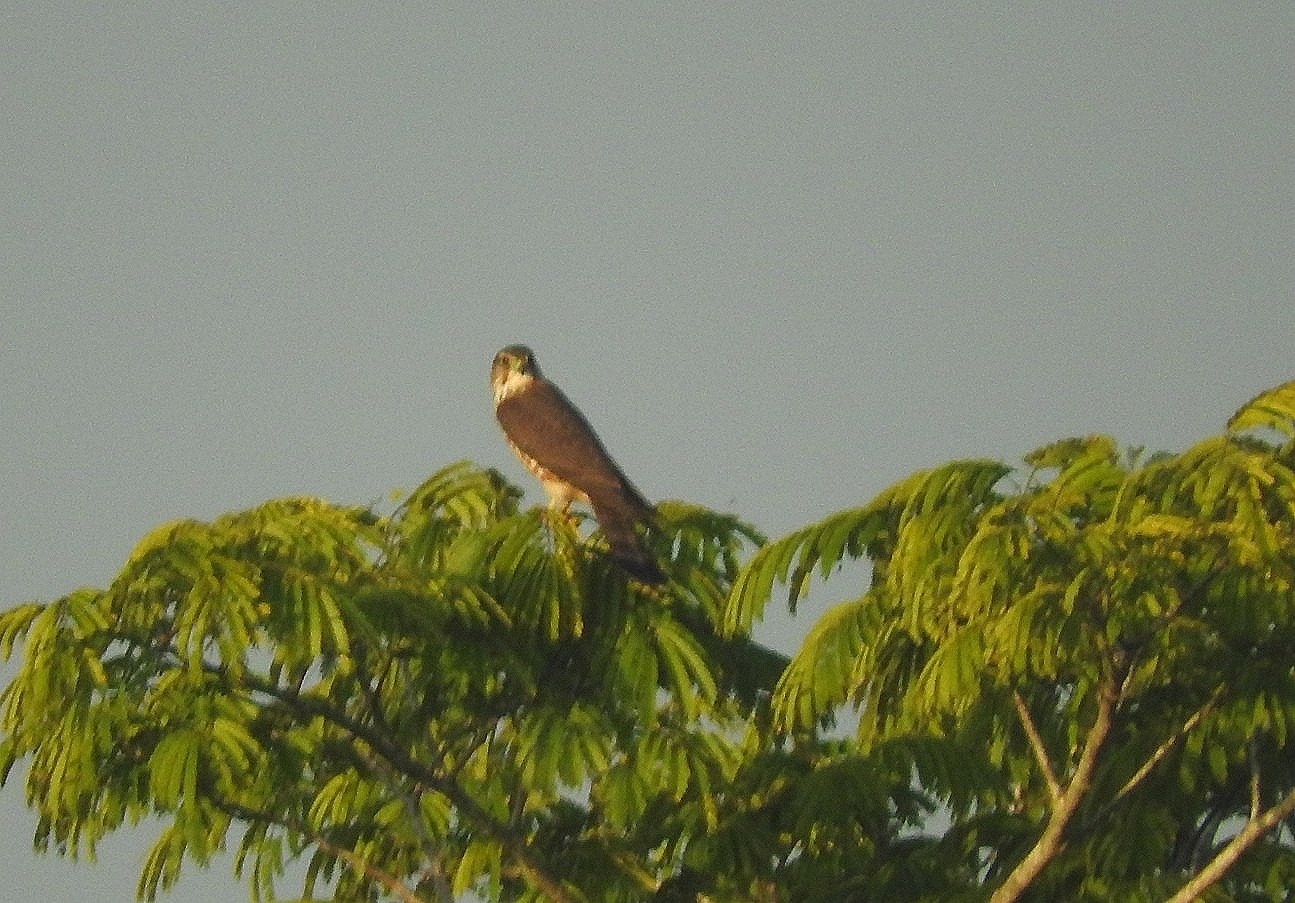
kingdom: Animalia
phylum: Chordata
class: Aves
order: Falconiformes
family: Falconidae
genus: Falco
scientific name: Falco columbarius
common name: Merlin
